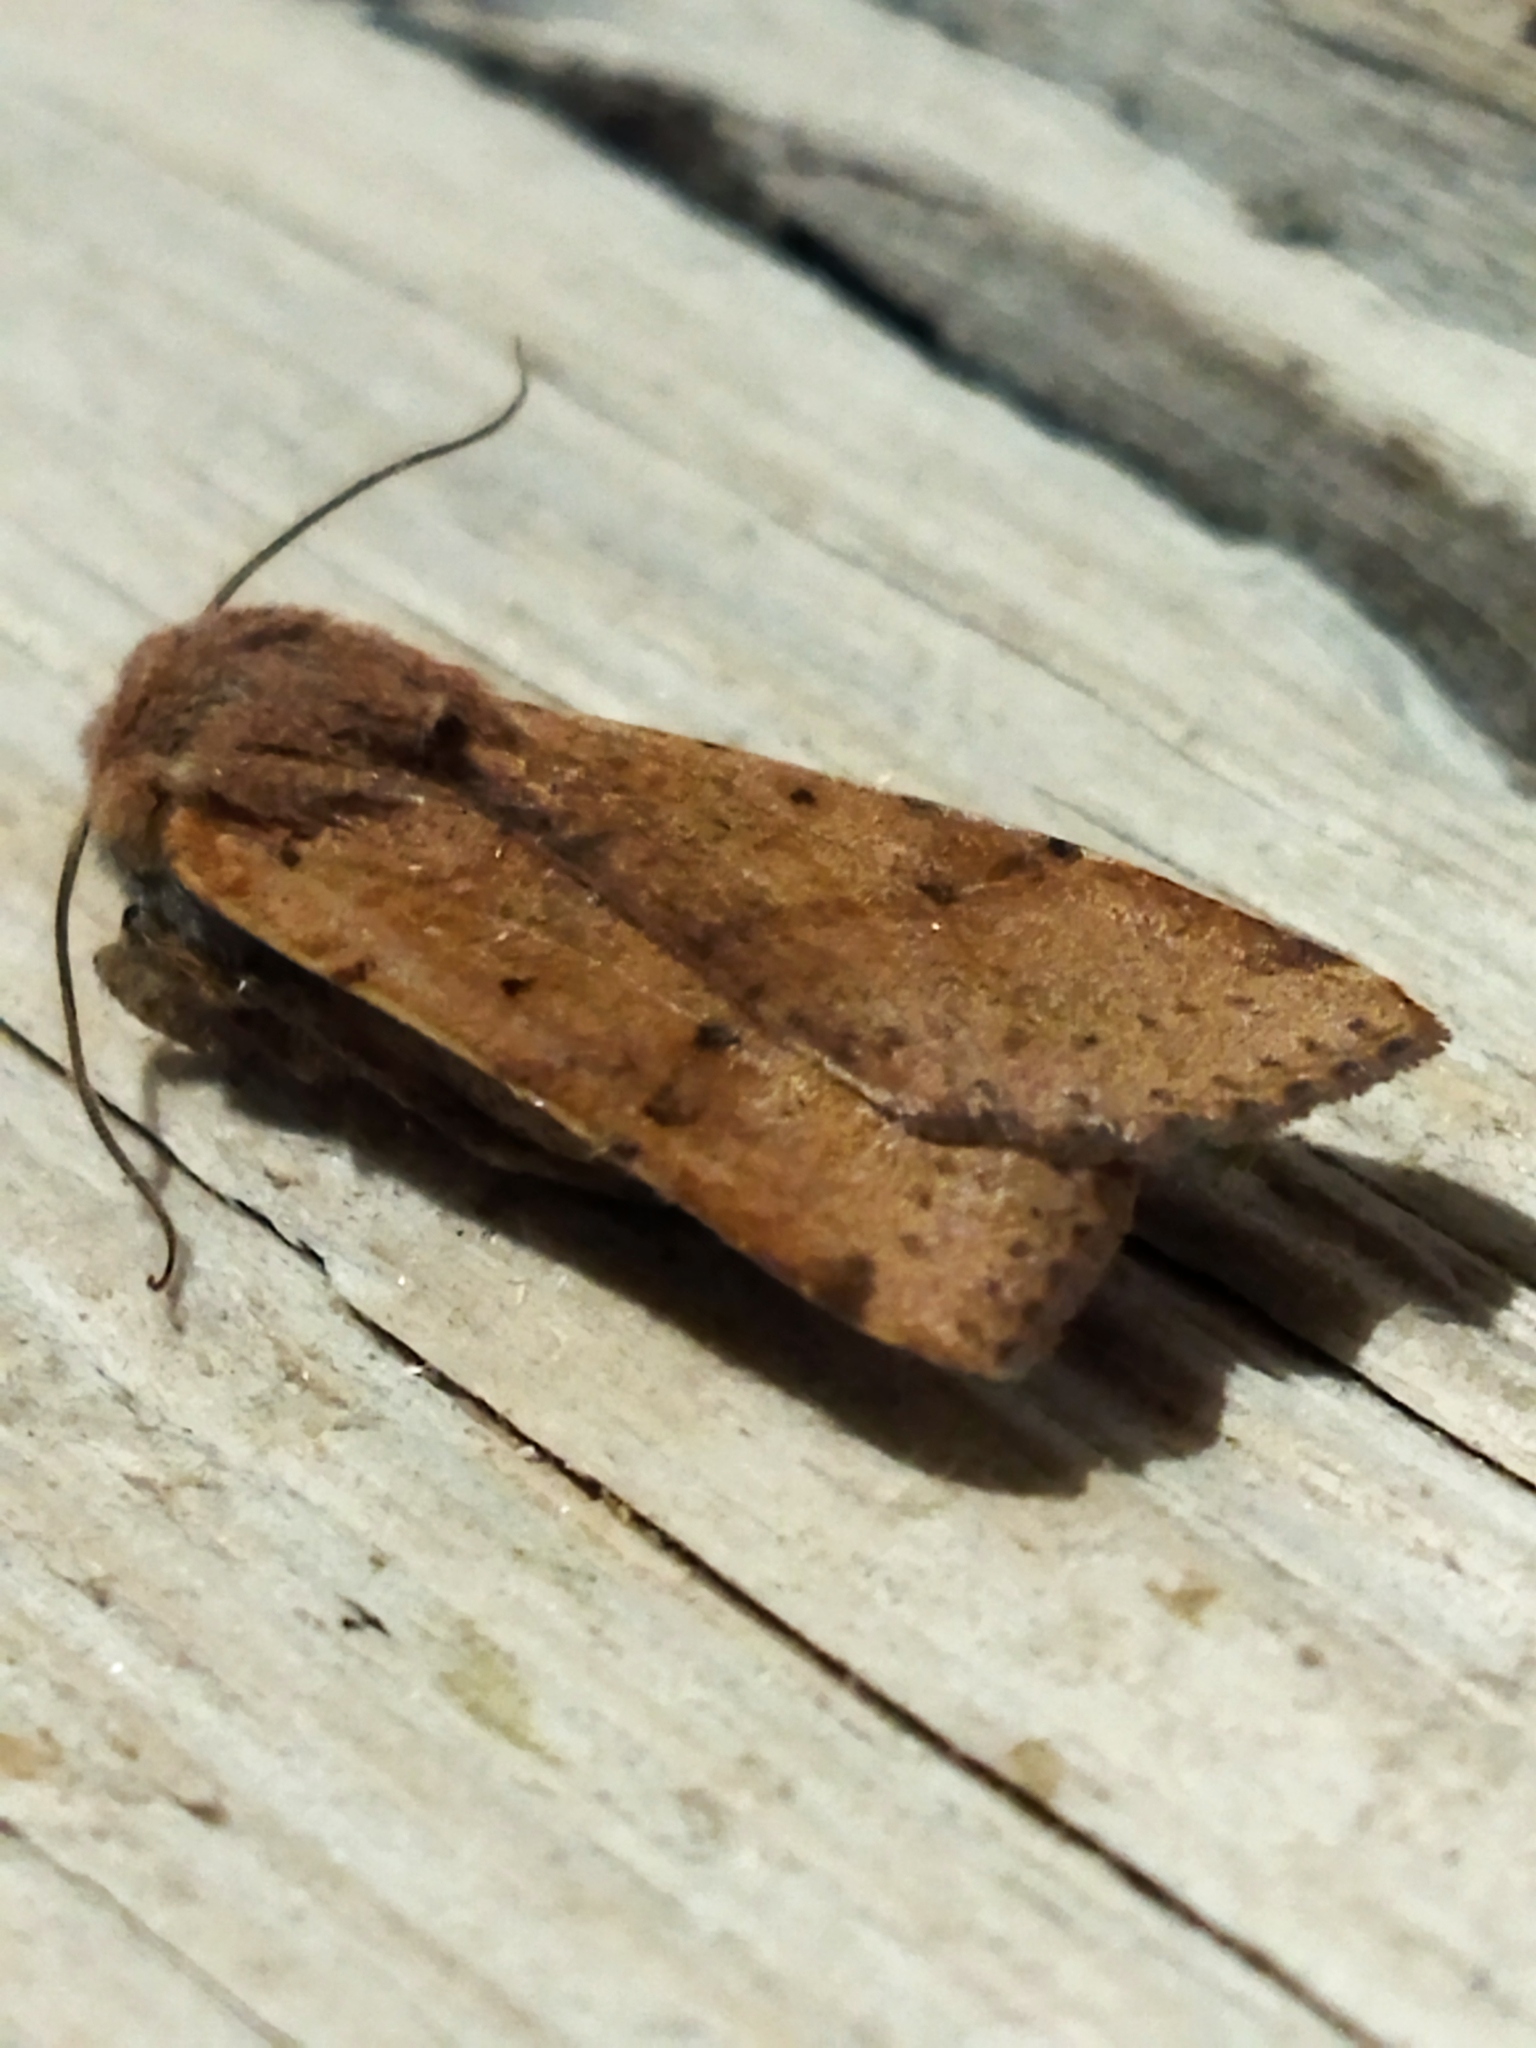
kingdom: Animalia
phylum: Arthropoda
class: Insecta
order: Lepidoptera
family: Noctuidae
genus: Agrochola
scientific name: Agrochola lychnidis
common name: Beaded chestnut
